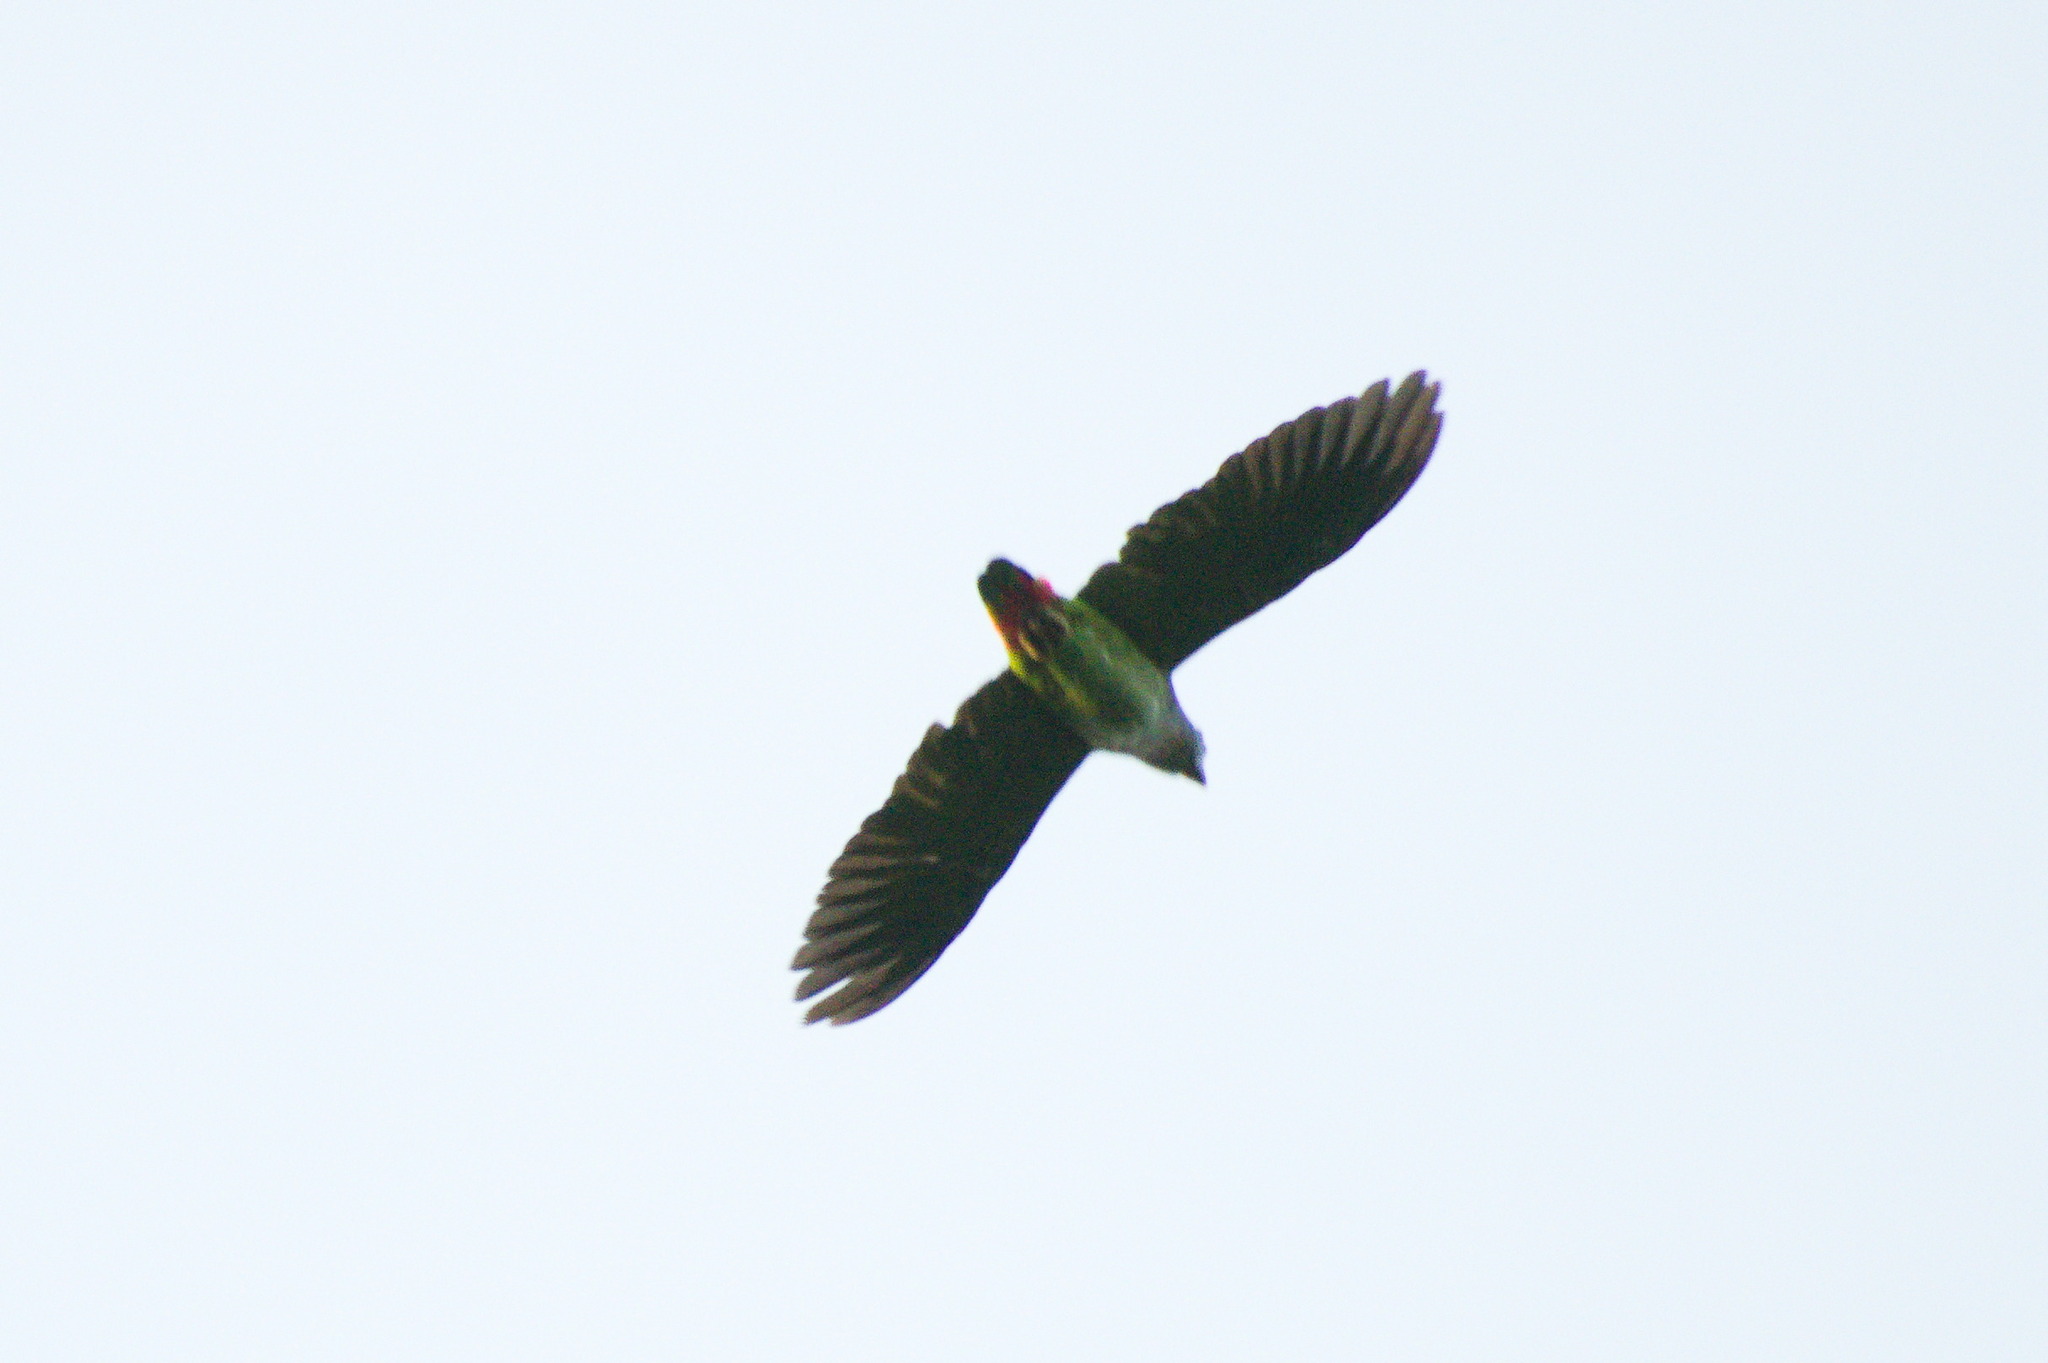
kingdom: Animalia
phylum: Chordata
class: Aves
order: Psittaciformes
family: Psittacidae
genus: Pionus
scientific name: Pionus menstruus
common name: Blue-headed parrot
